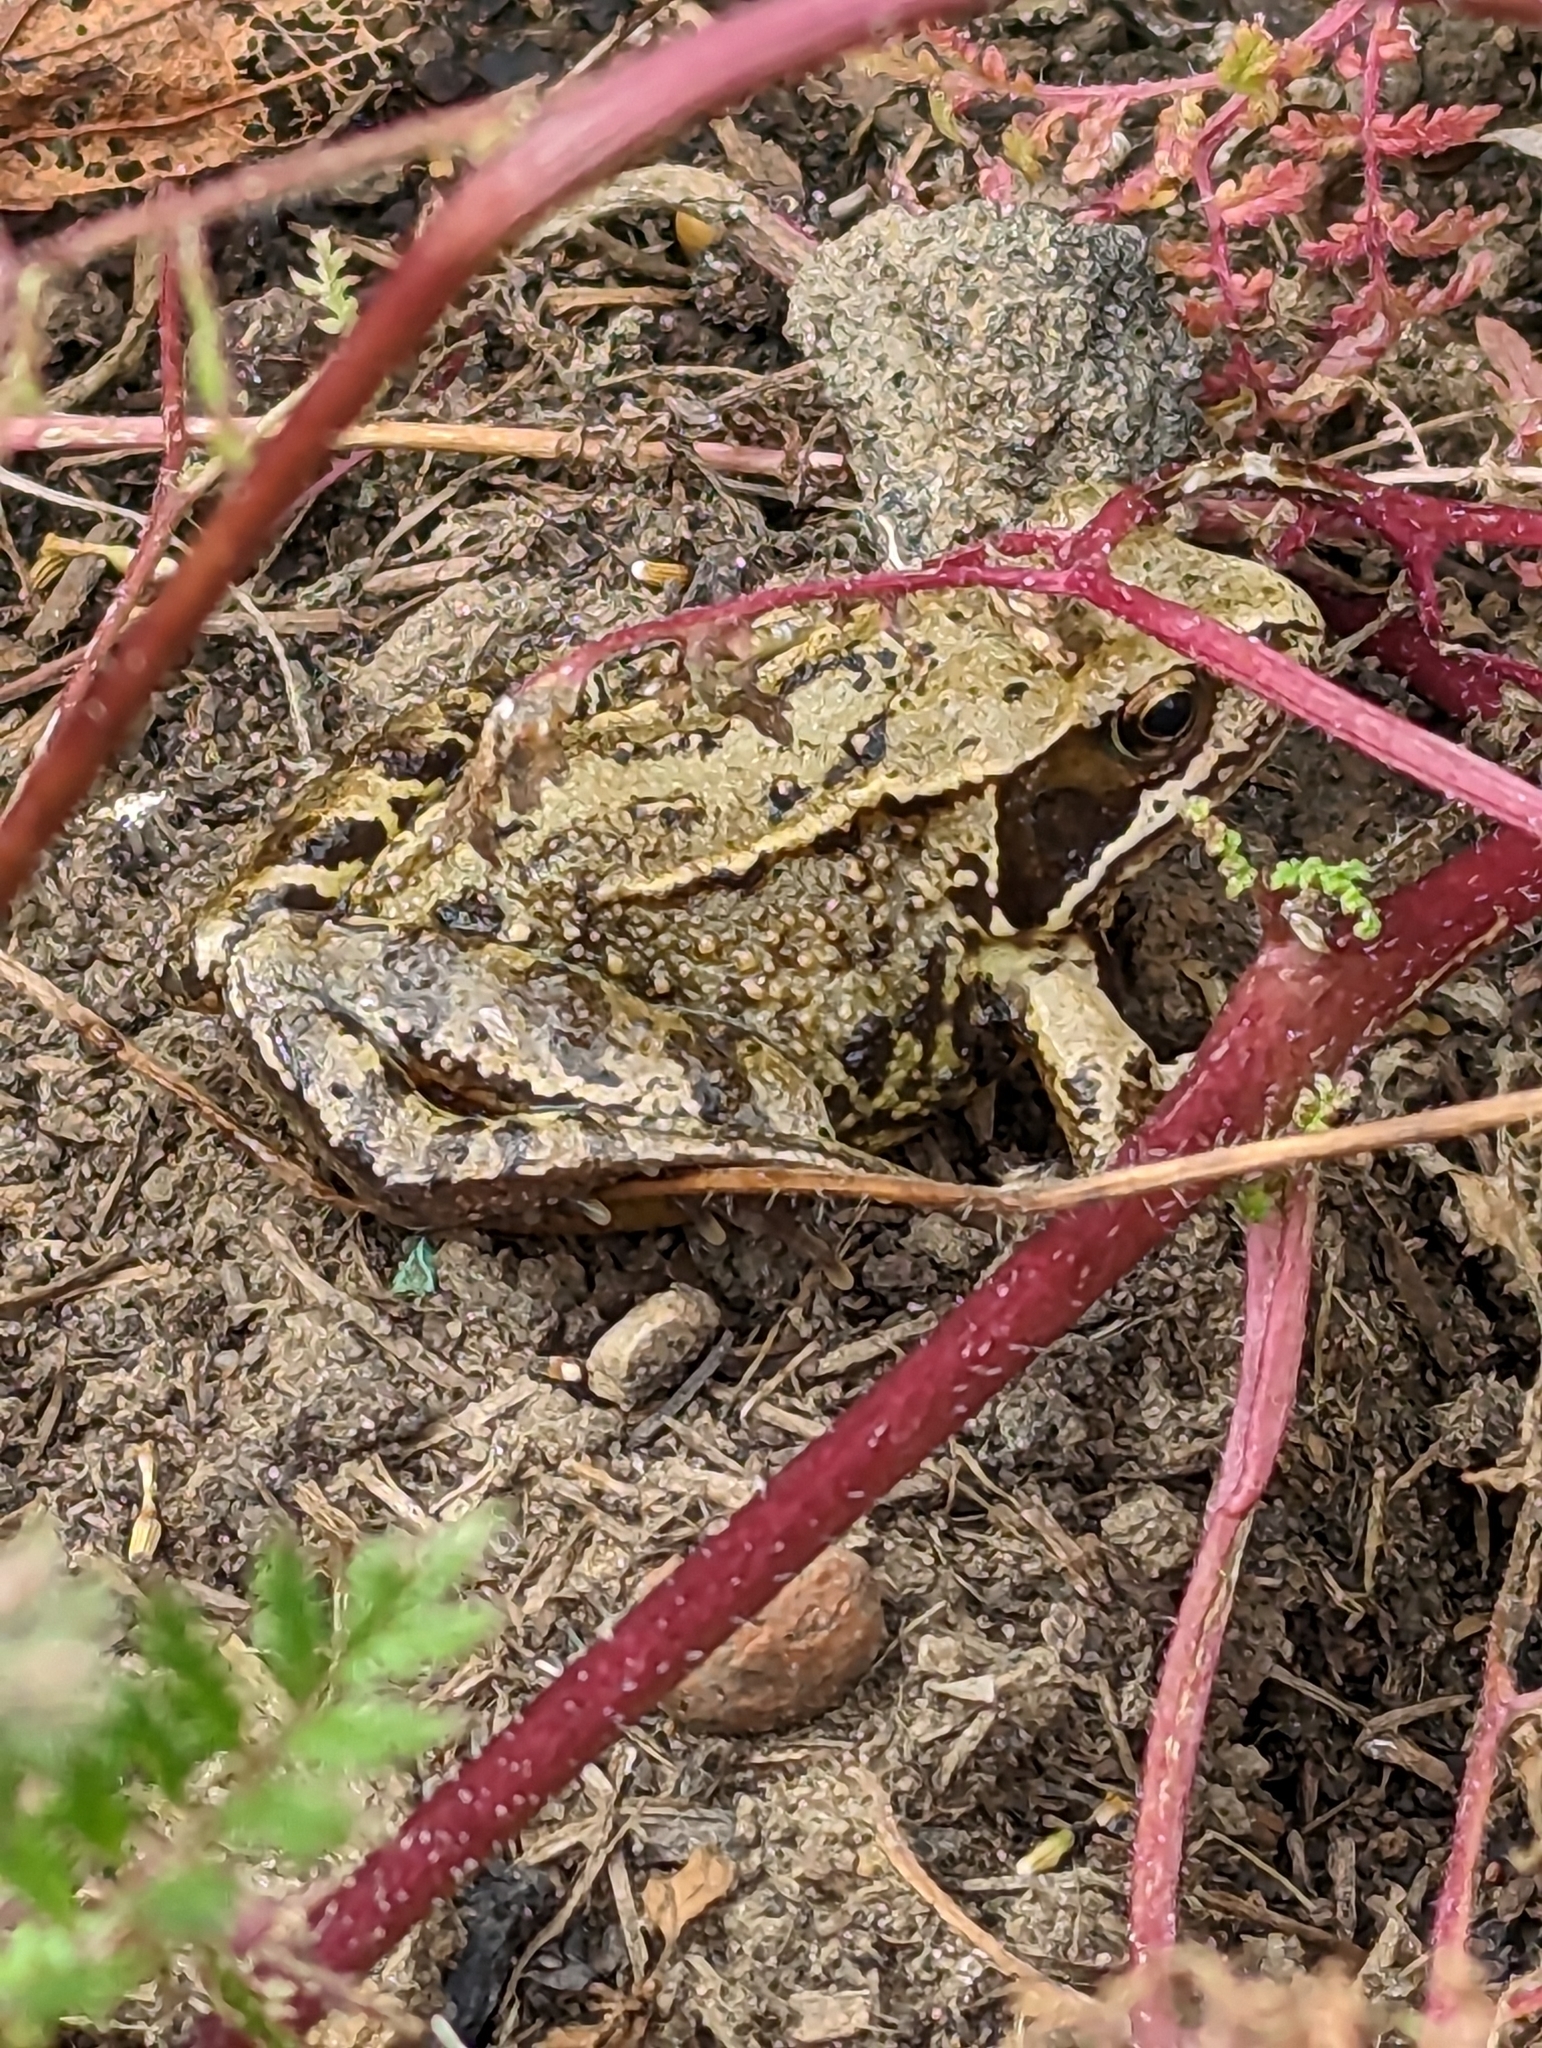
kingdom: Animalia
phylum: Chordata
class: Amphibia
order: Anura
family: Ranidae
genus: Rana
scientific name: Rana temporaria
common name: Common frog
